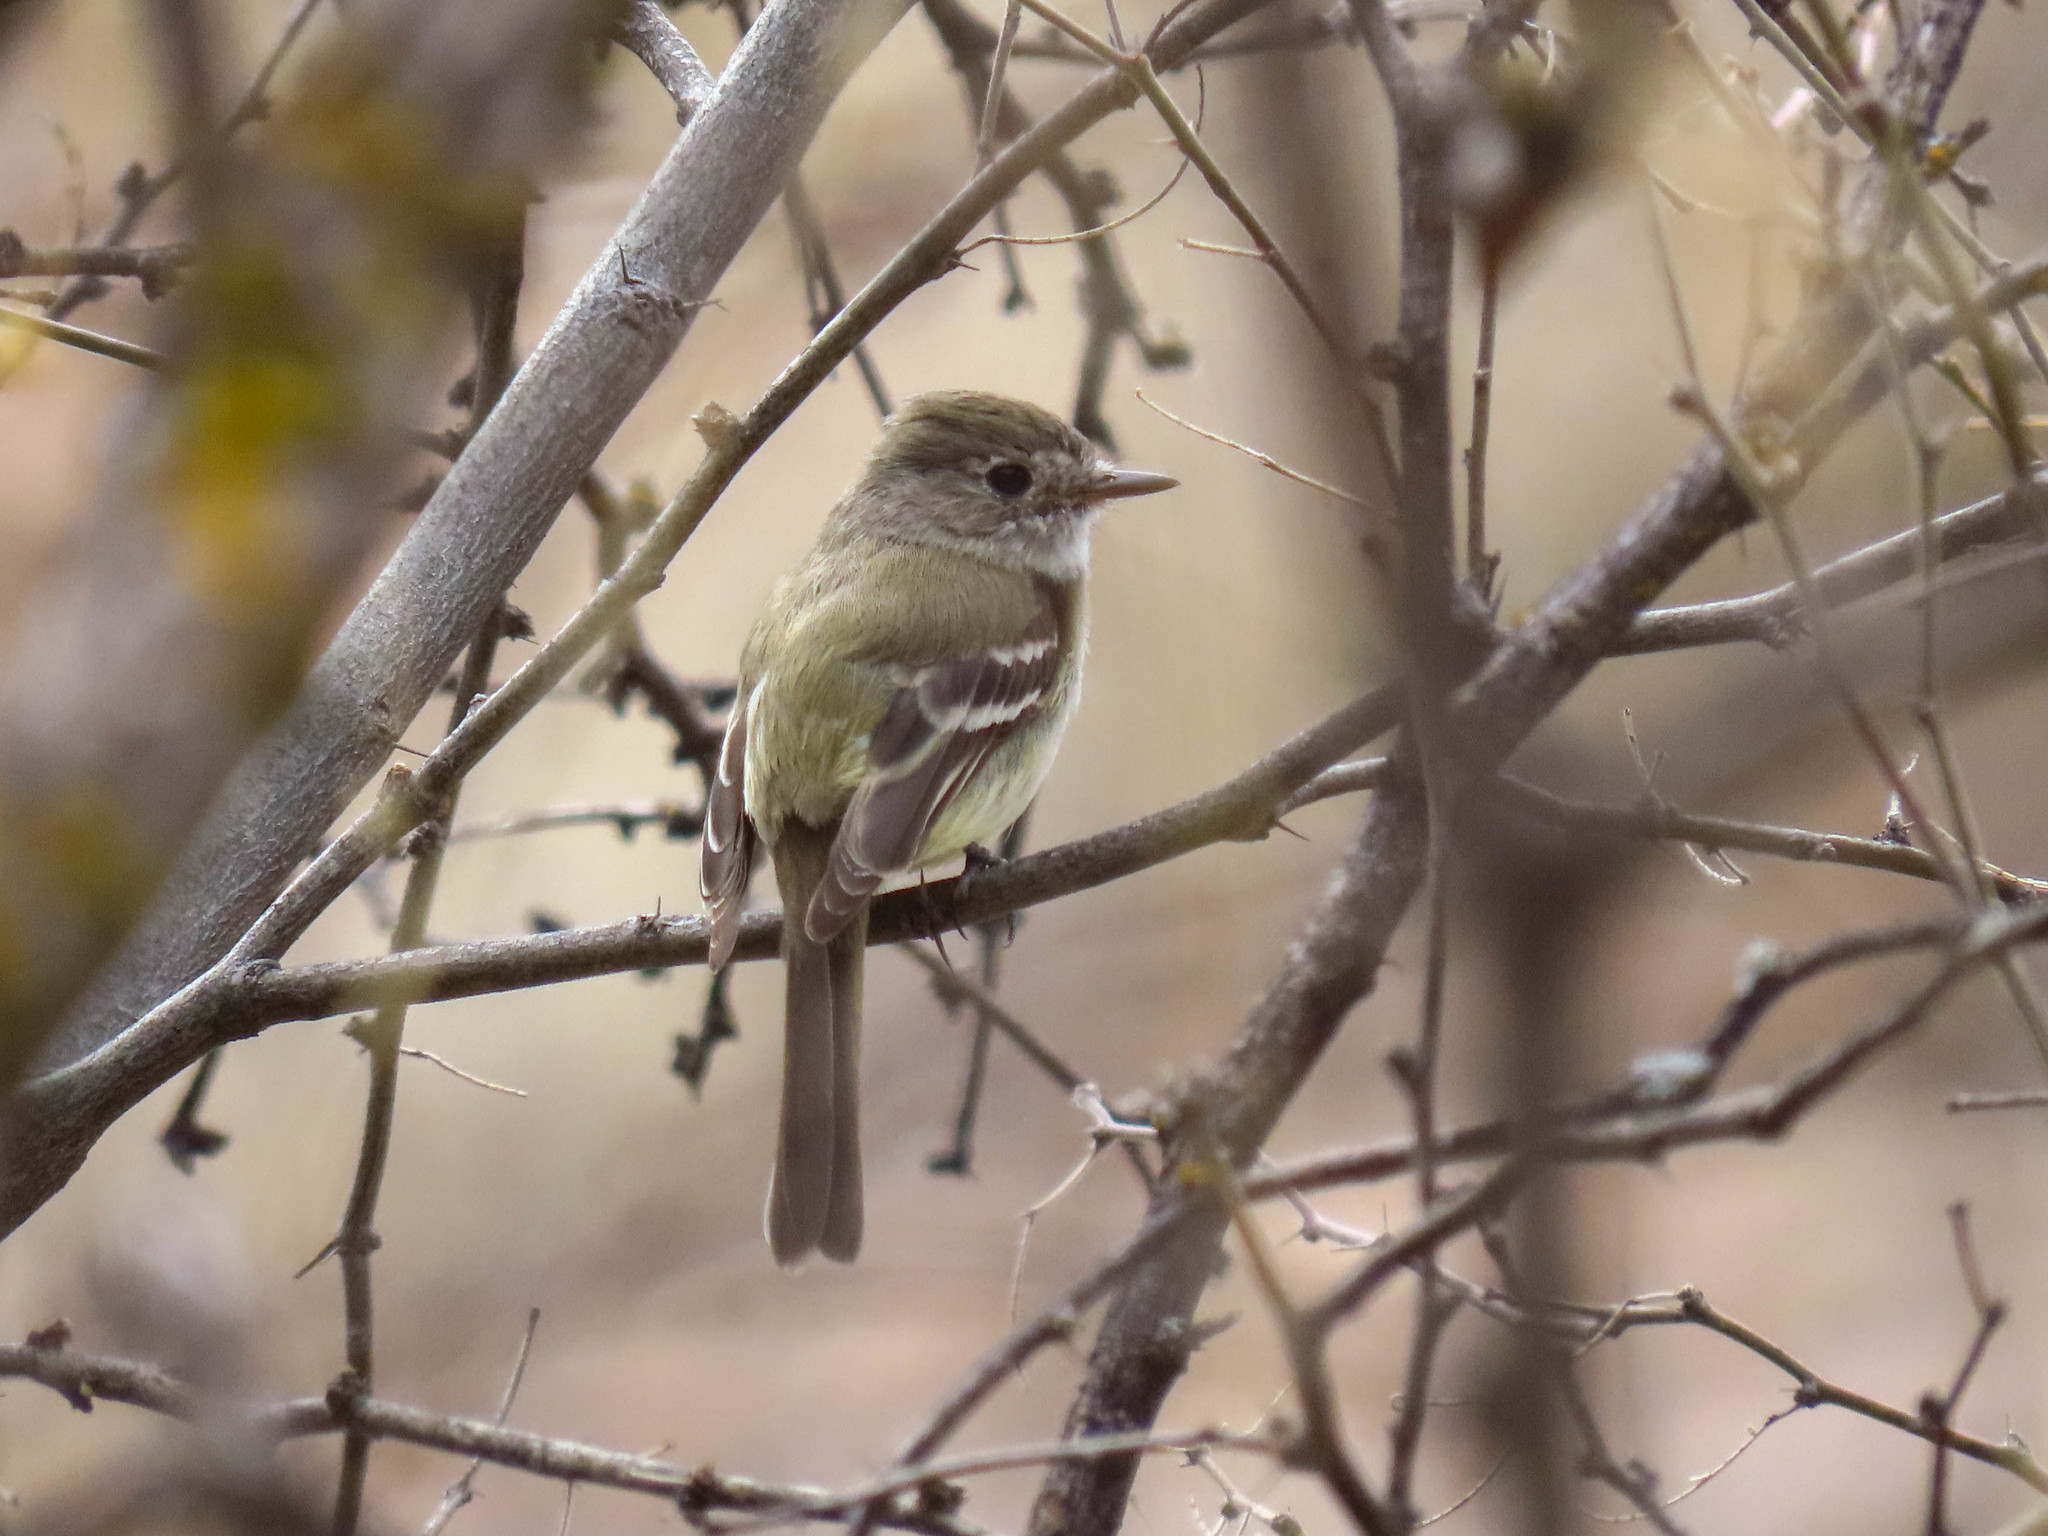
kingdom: Animalia
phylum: Chordata
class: Aves
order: Passeriformes
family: Tyrannidae
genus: Empidonax
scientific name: Empidonax oberholseri
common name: Dusky flycatcher
